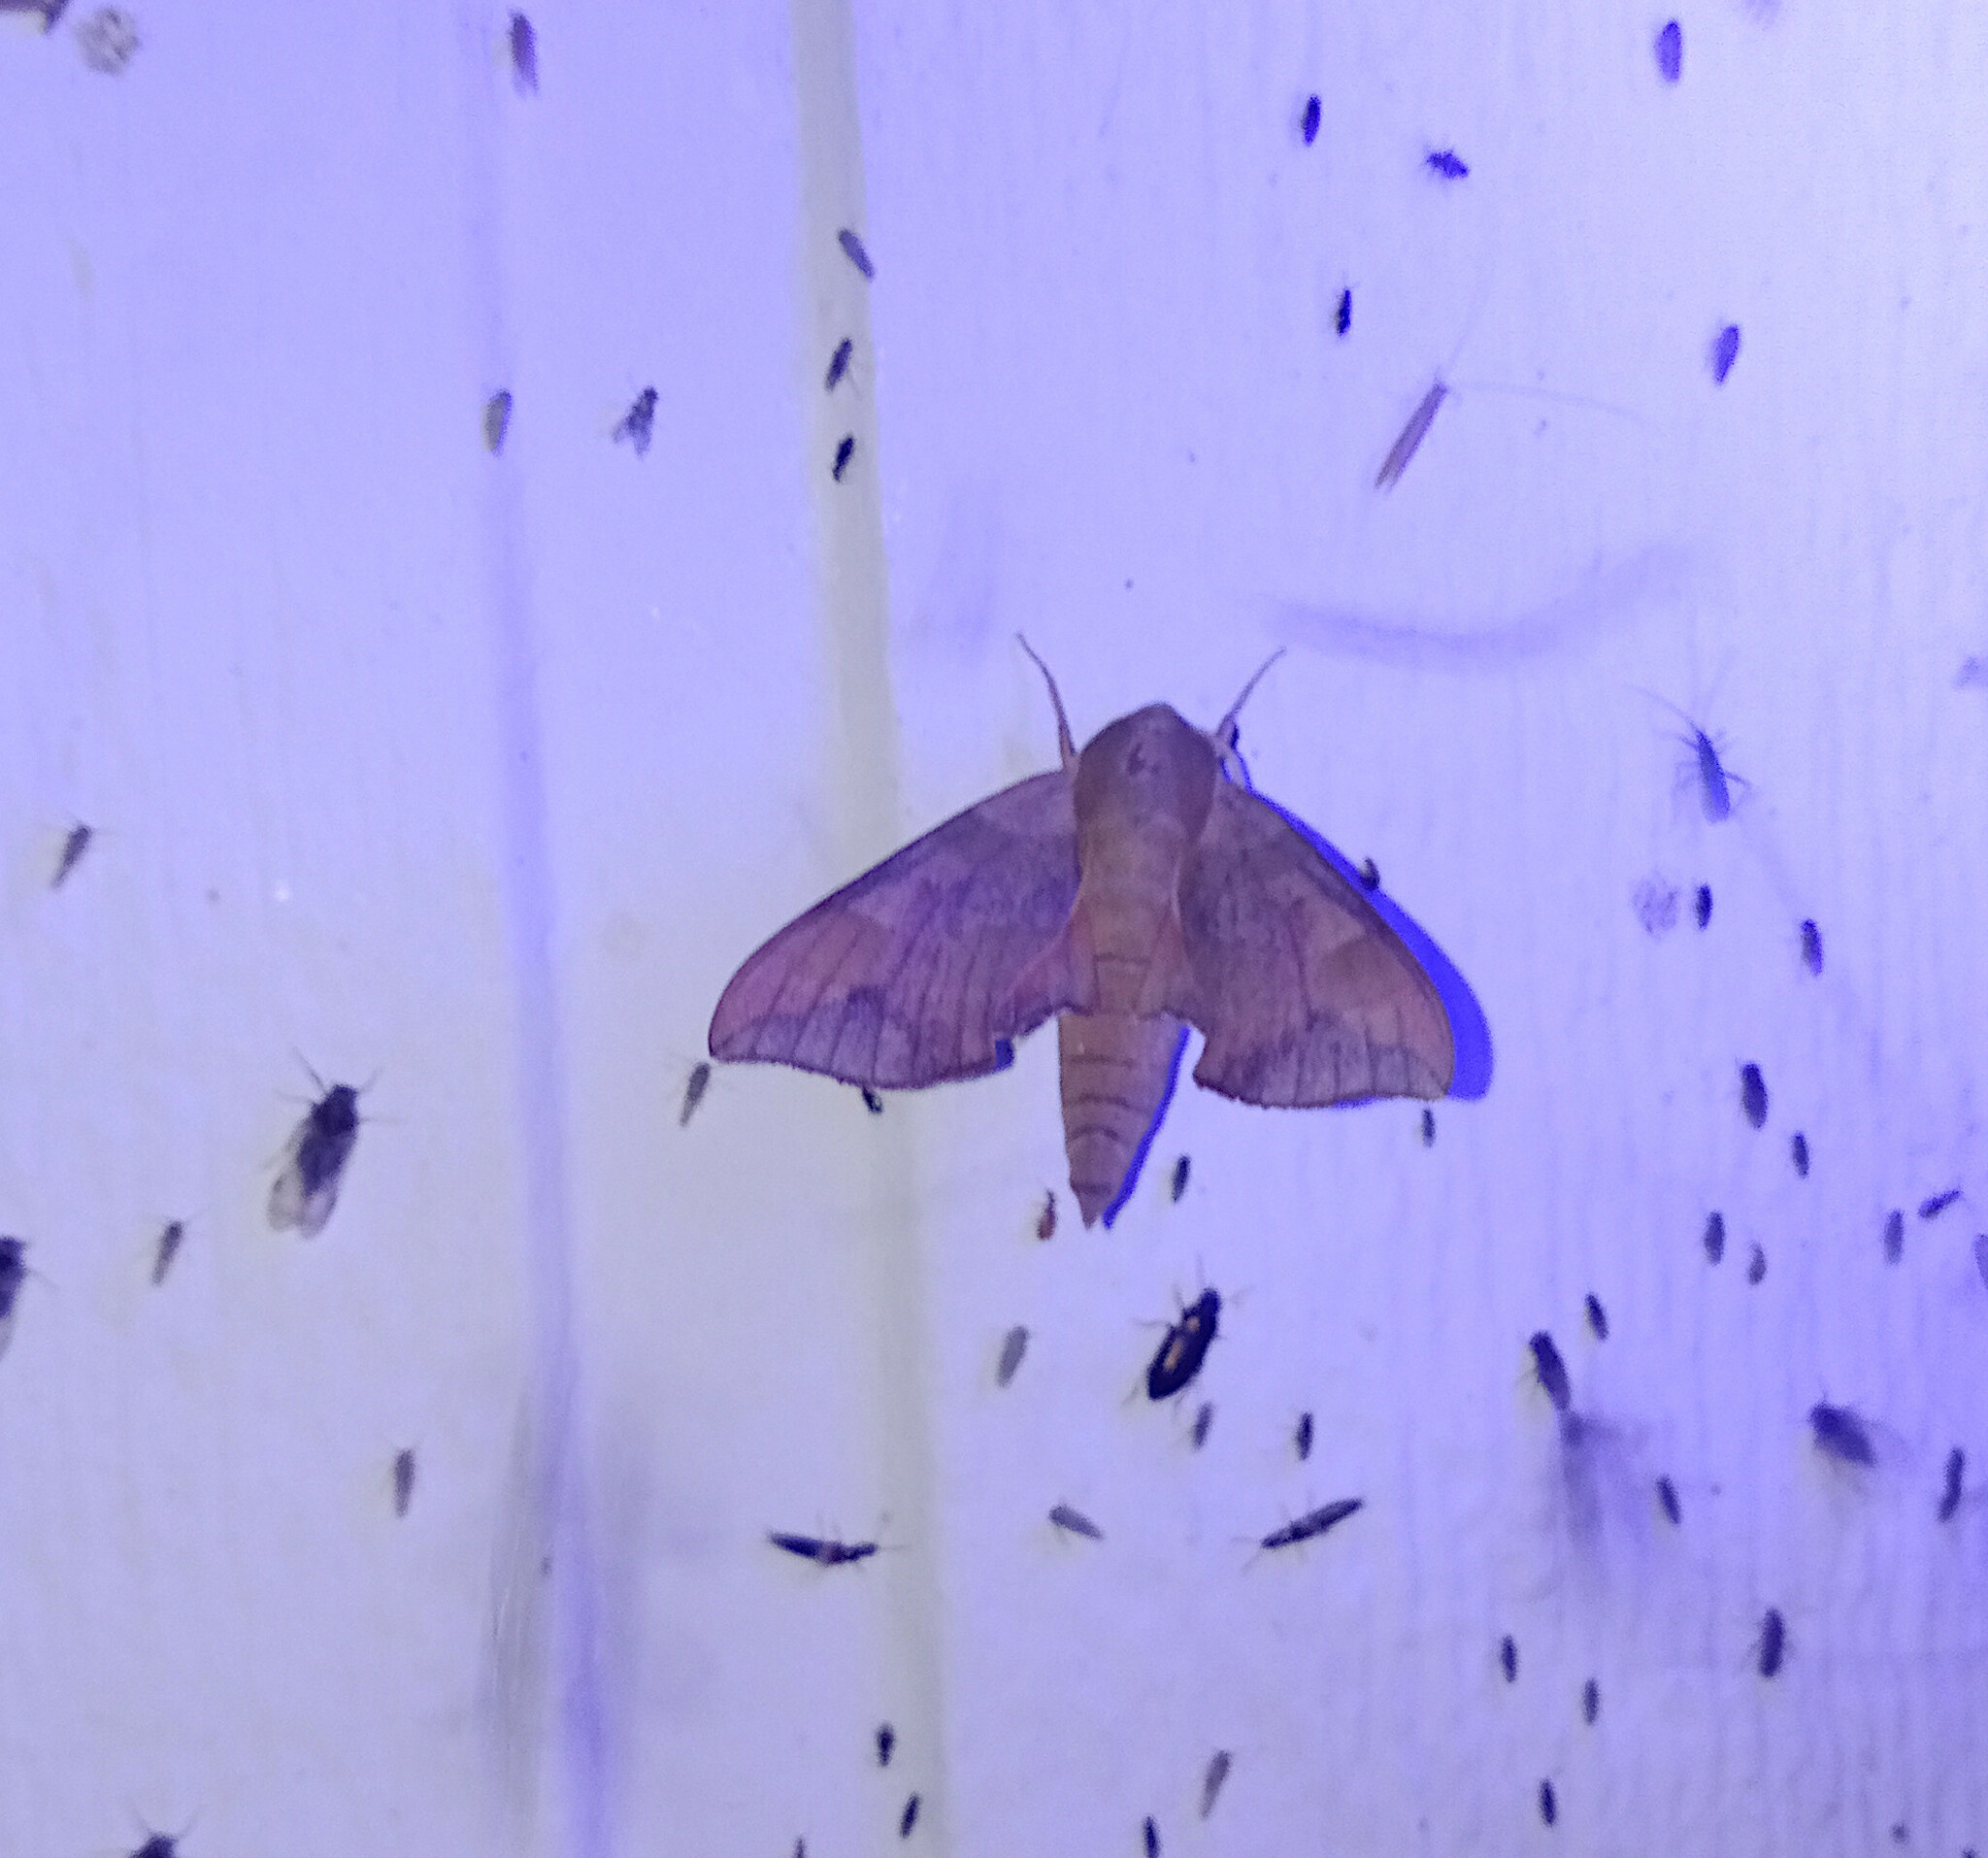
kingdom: Animalia
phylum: Arthropoda
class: Insecta
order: Lepidoptera
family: Sphingidae
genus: Darapsa
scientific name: Darapsa myron
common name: Hog sphinx
